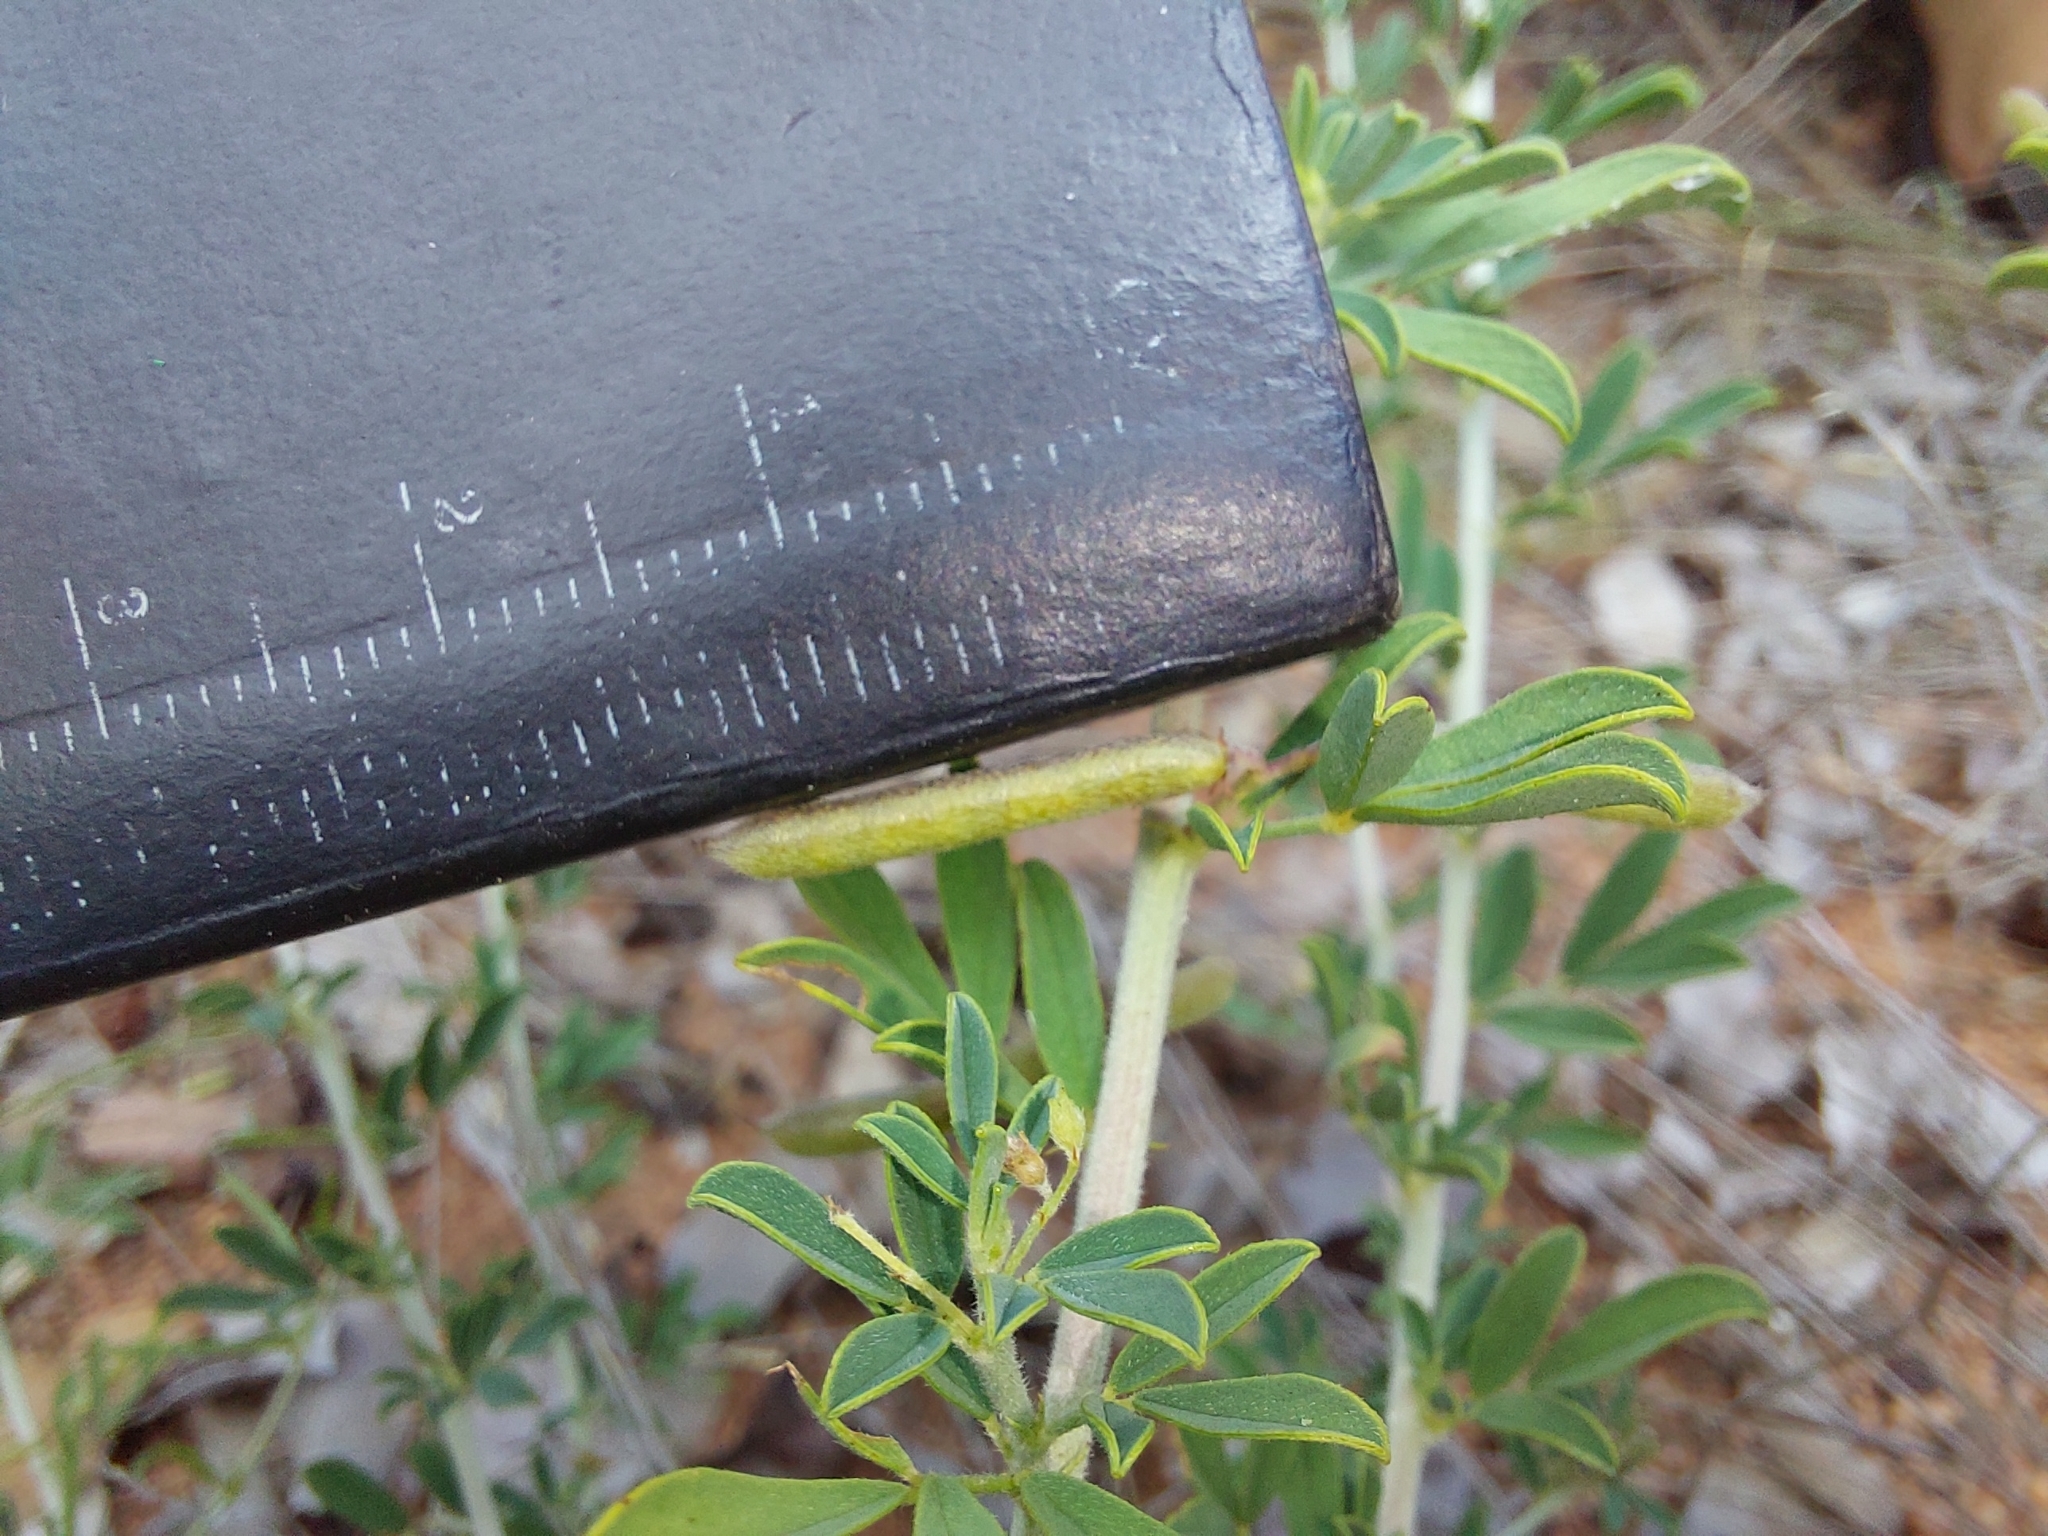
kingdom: Plantae
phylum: Tracheophyta
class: Magnoliopsida
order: Fabales
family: Fabaceae
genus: Indigofera
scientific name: Indigofera nebrowniana
